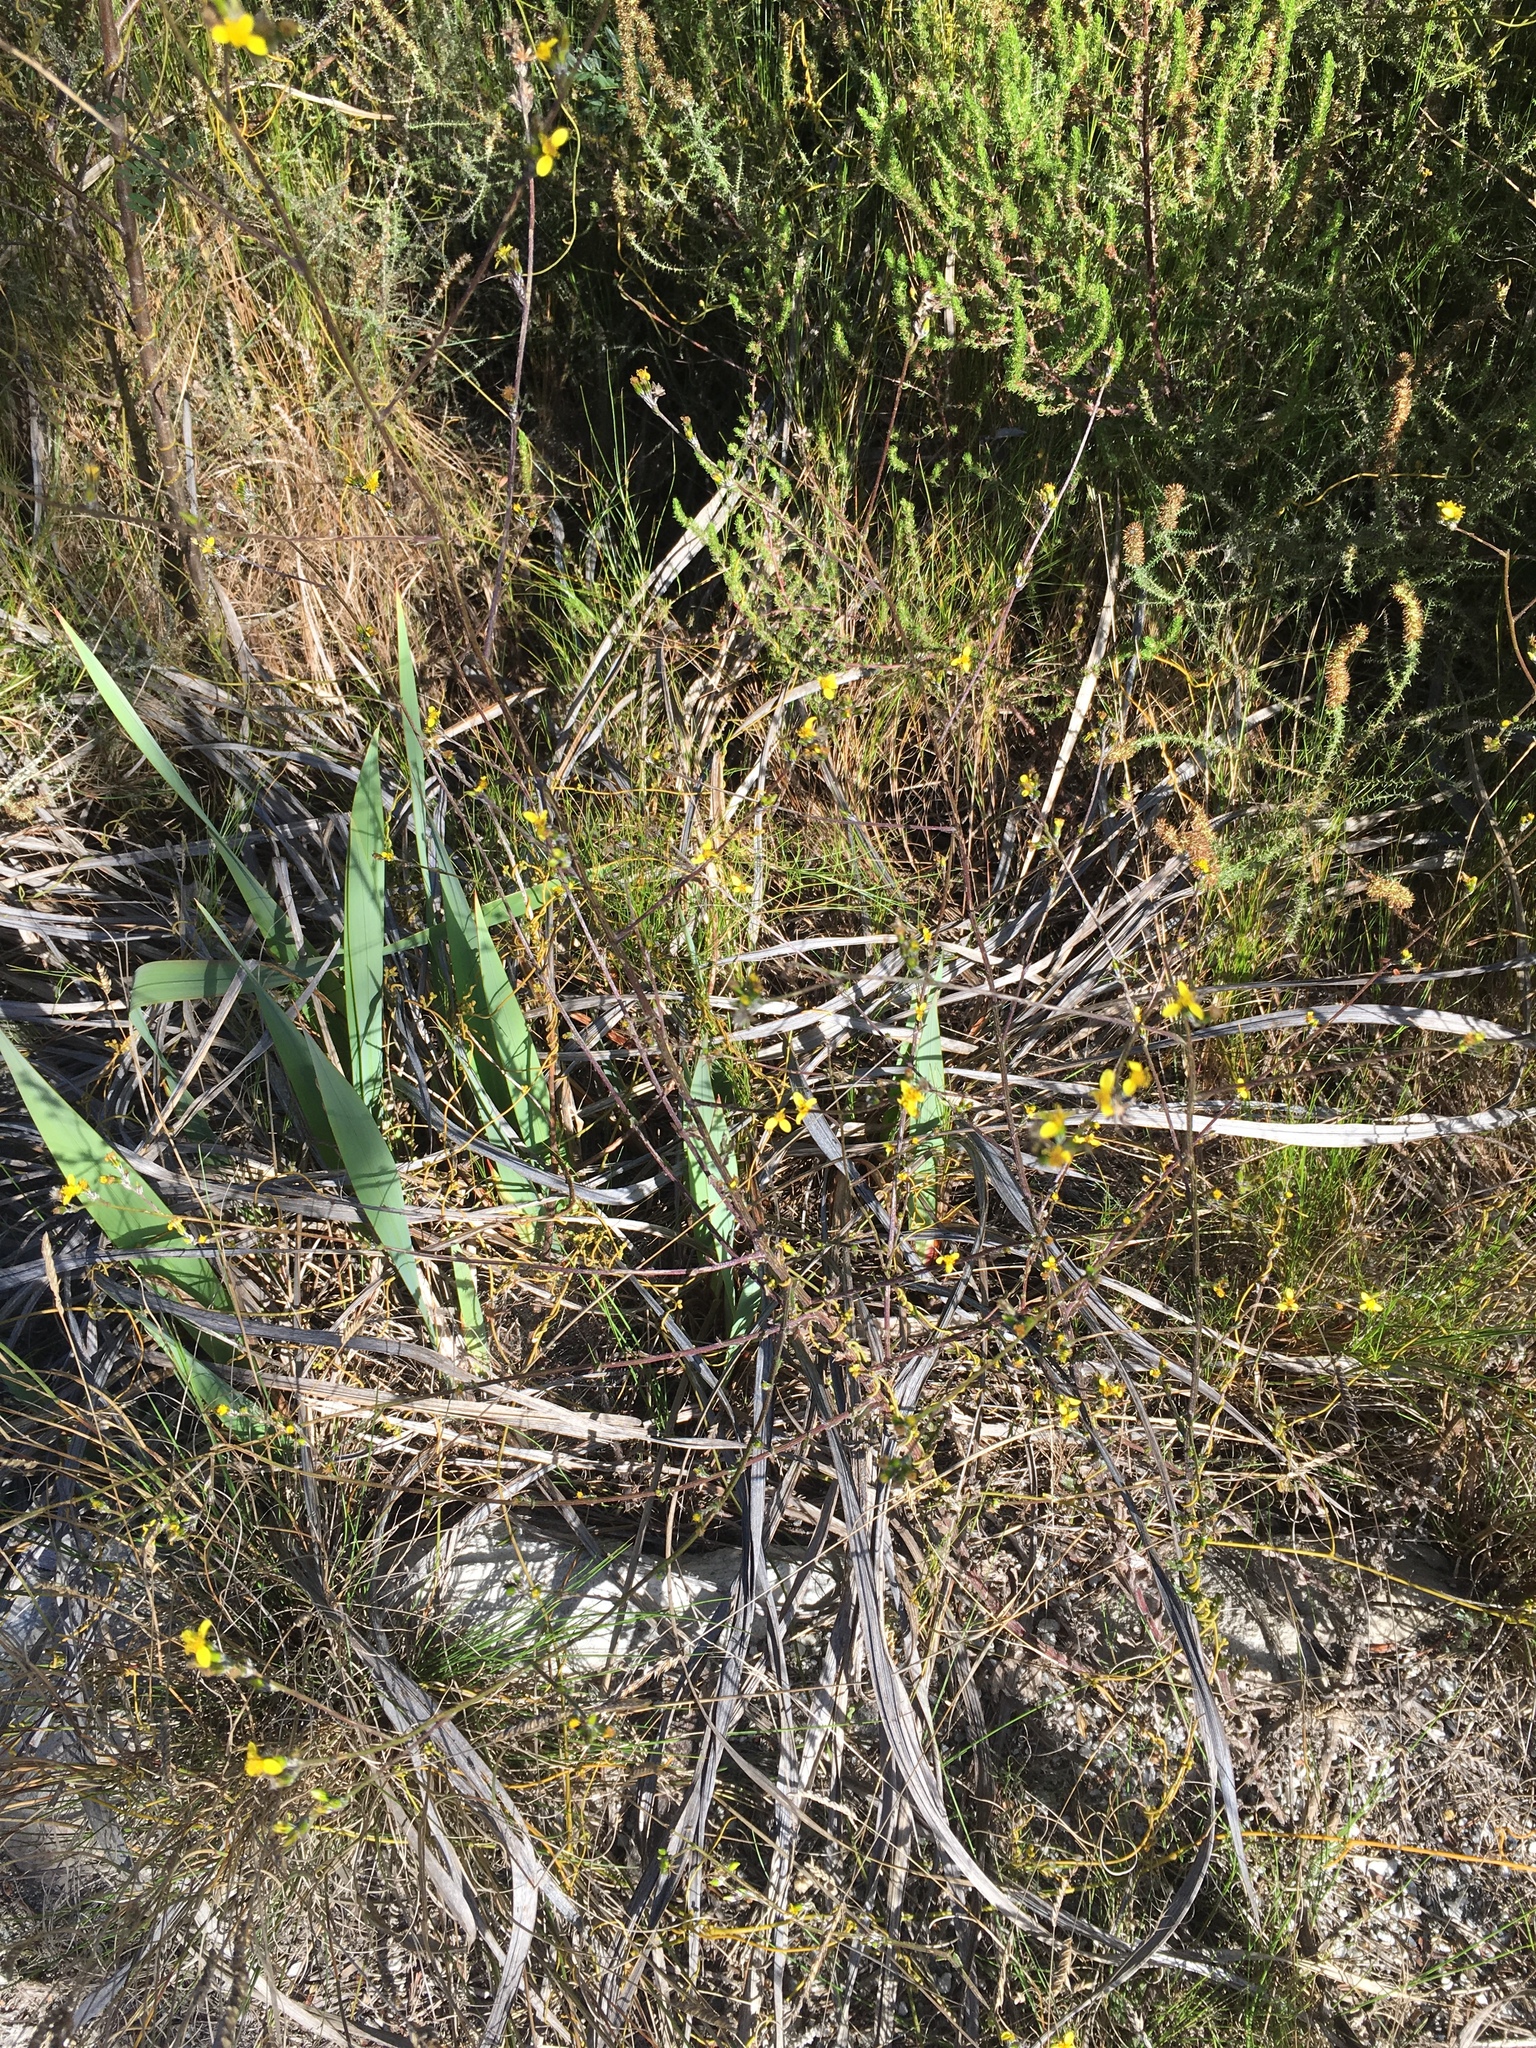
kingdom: Plantae
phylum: Tracheophyta
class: Magnoliopsida
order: Asterales
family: Asteraceae
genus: Senecio
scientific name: Senecio pubigerus
